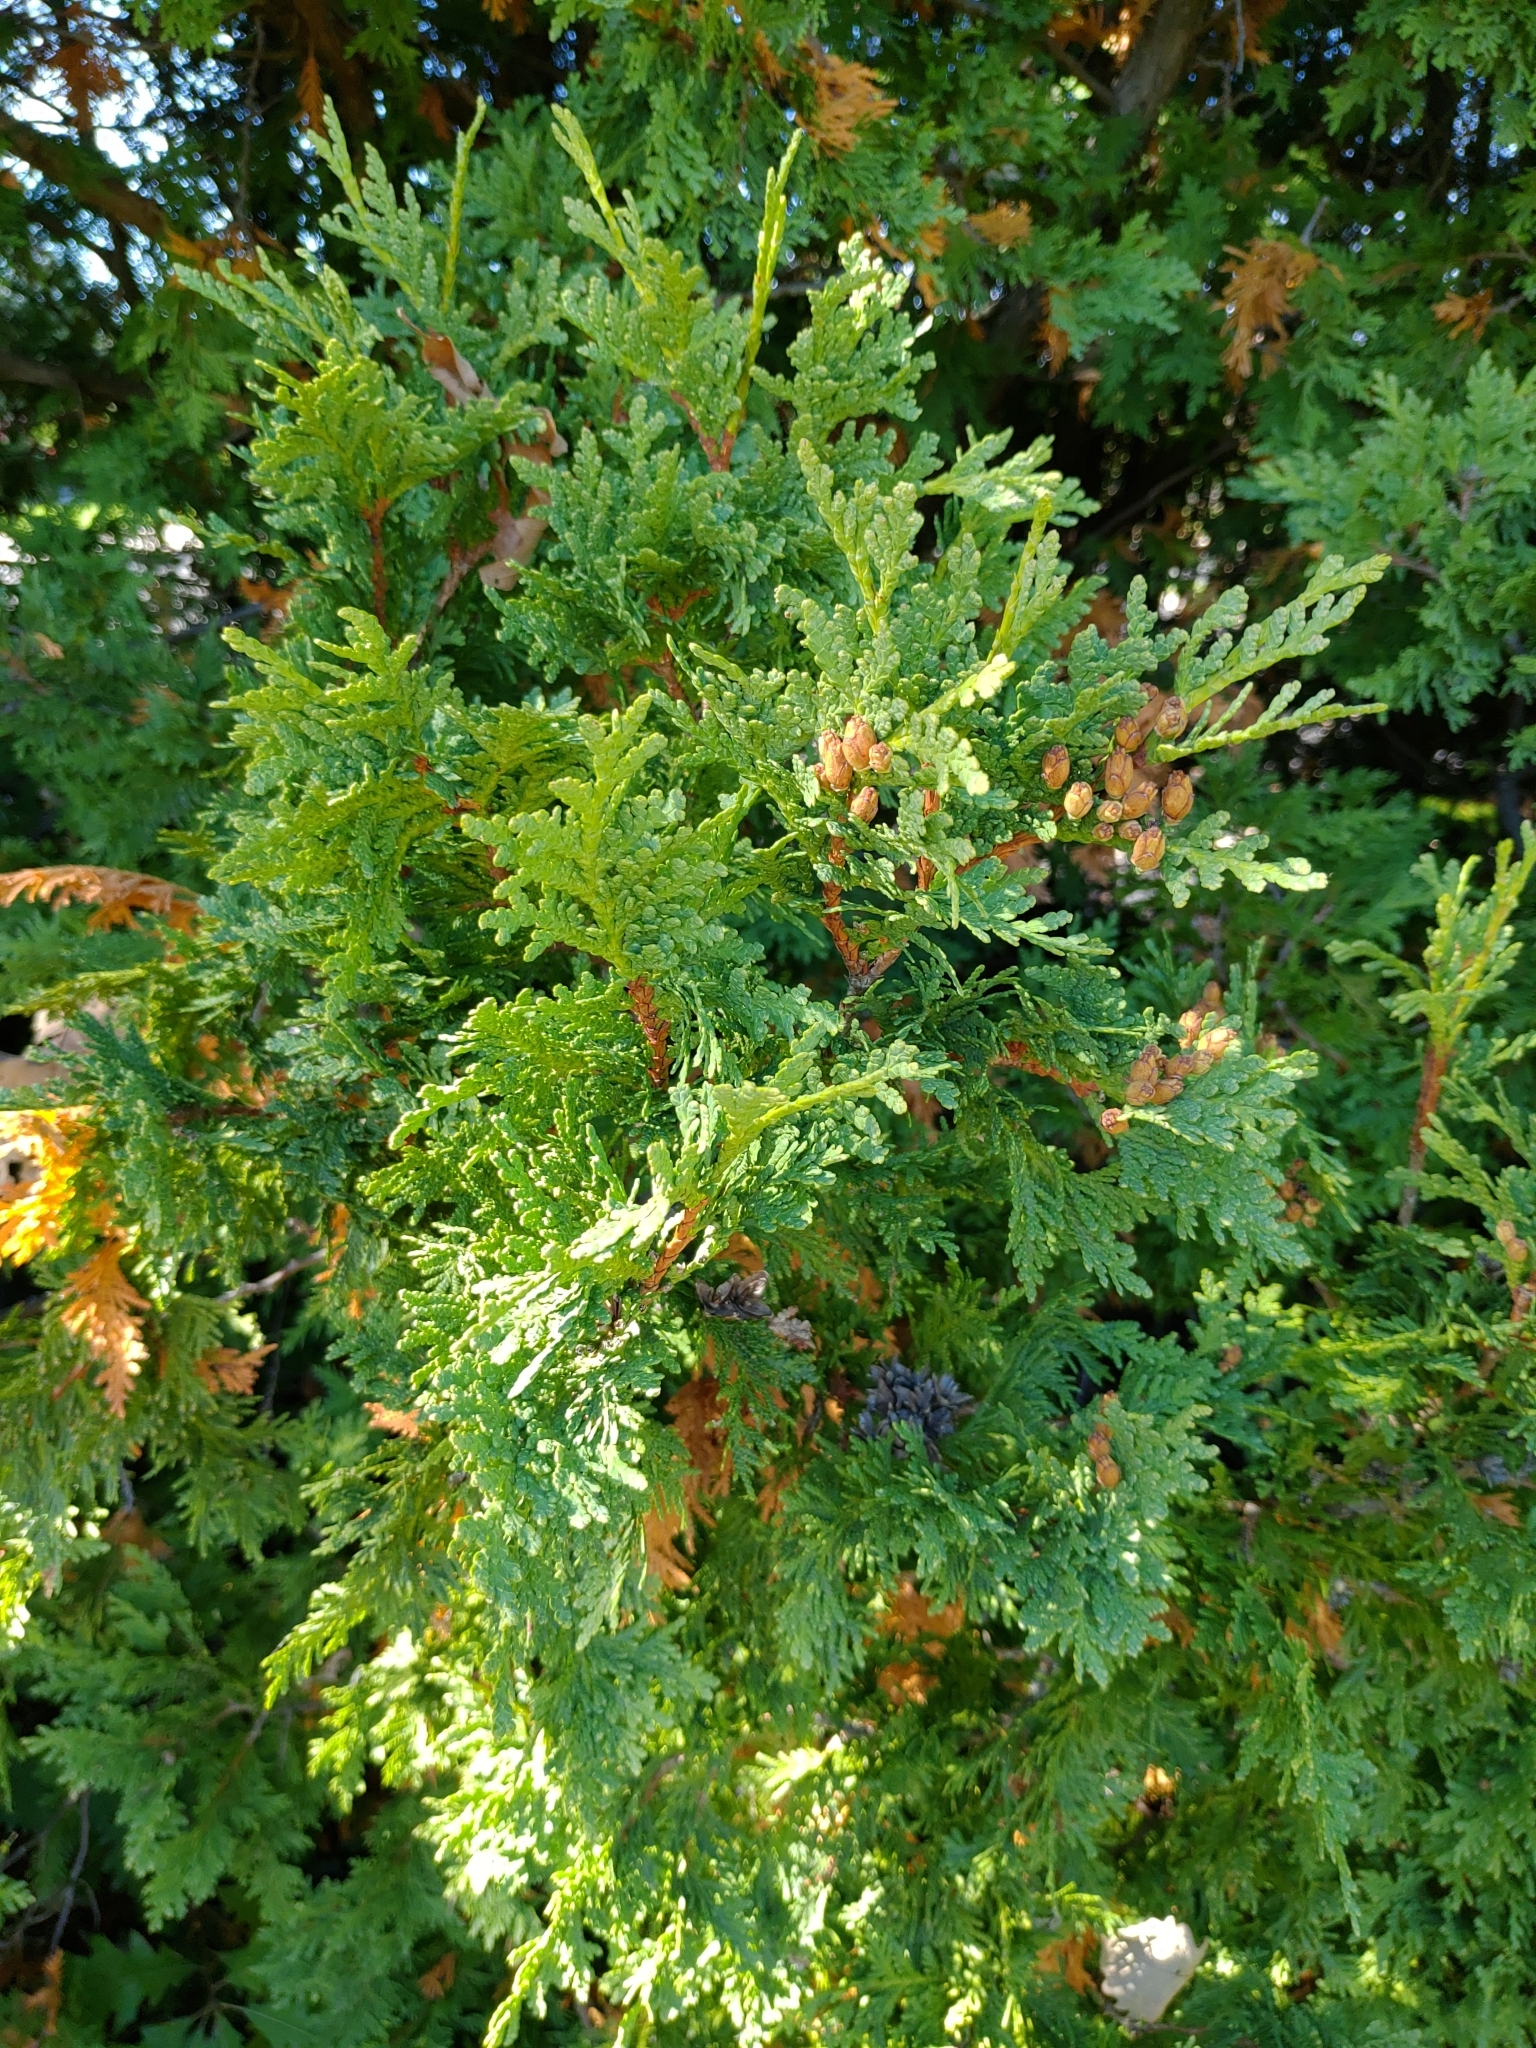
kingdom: Plantae
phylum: Tracheophyta
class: Pinopsida
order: Pinales
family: Cupressaceae
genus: Thuja
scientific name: Thuja occidentalis
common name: Northern white-cedar
